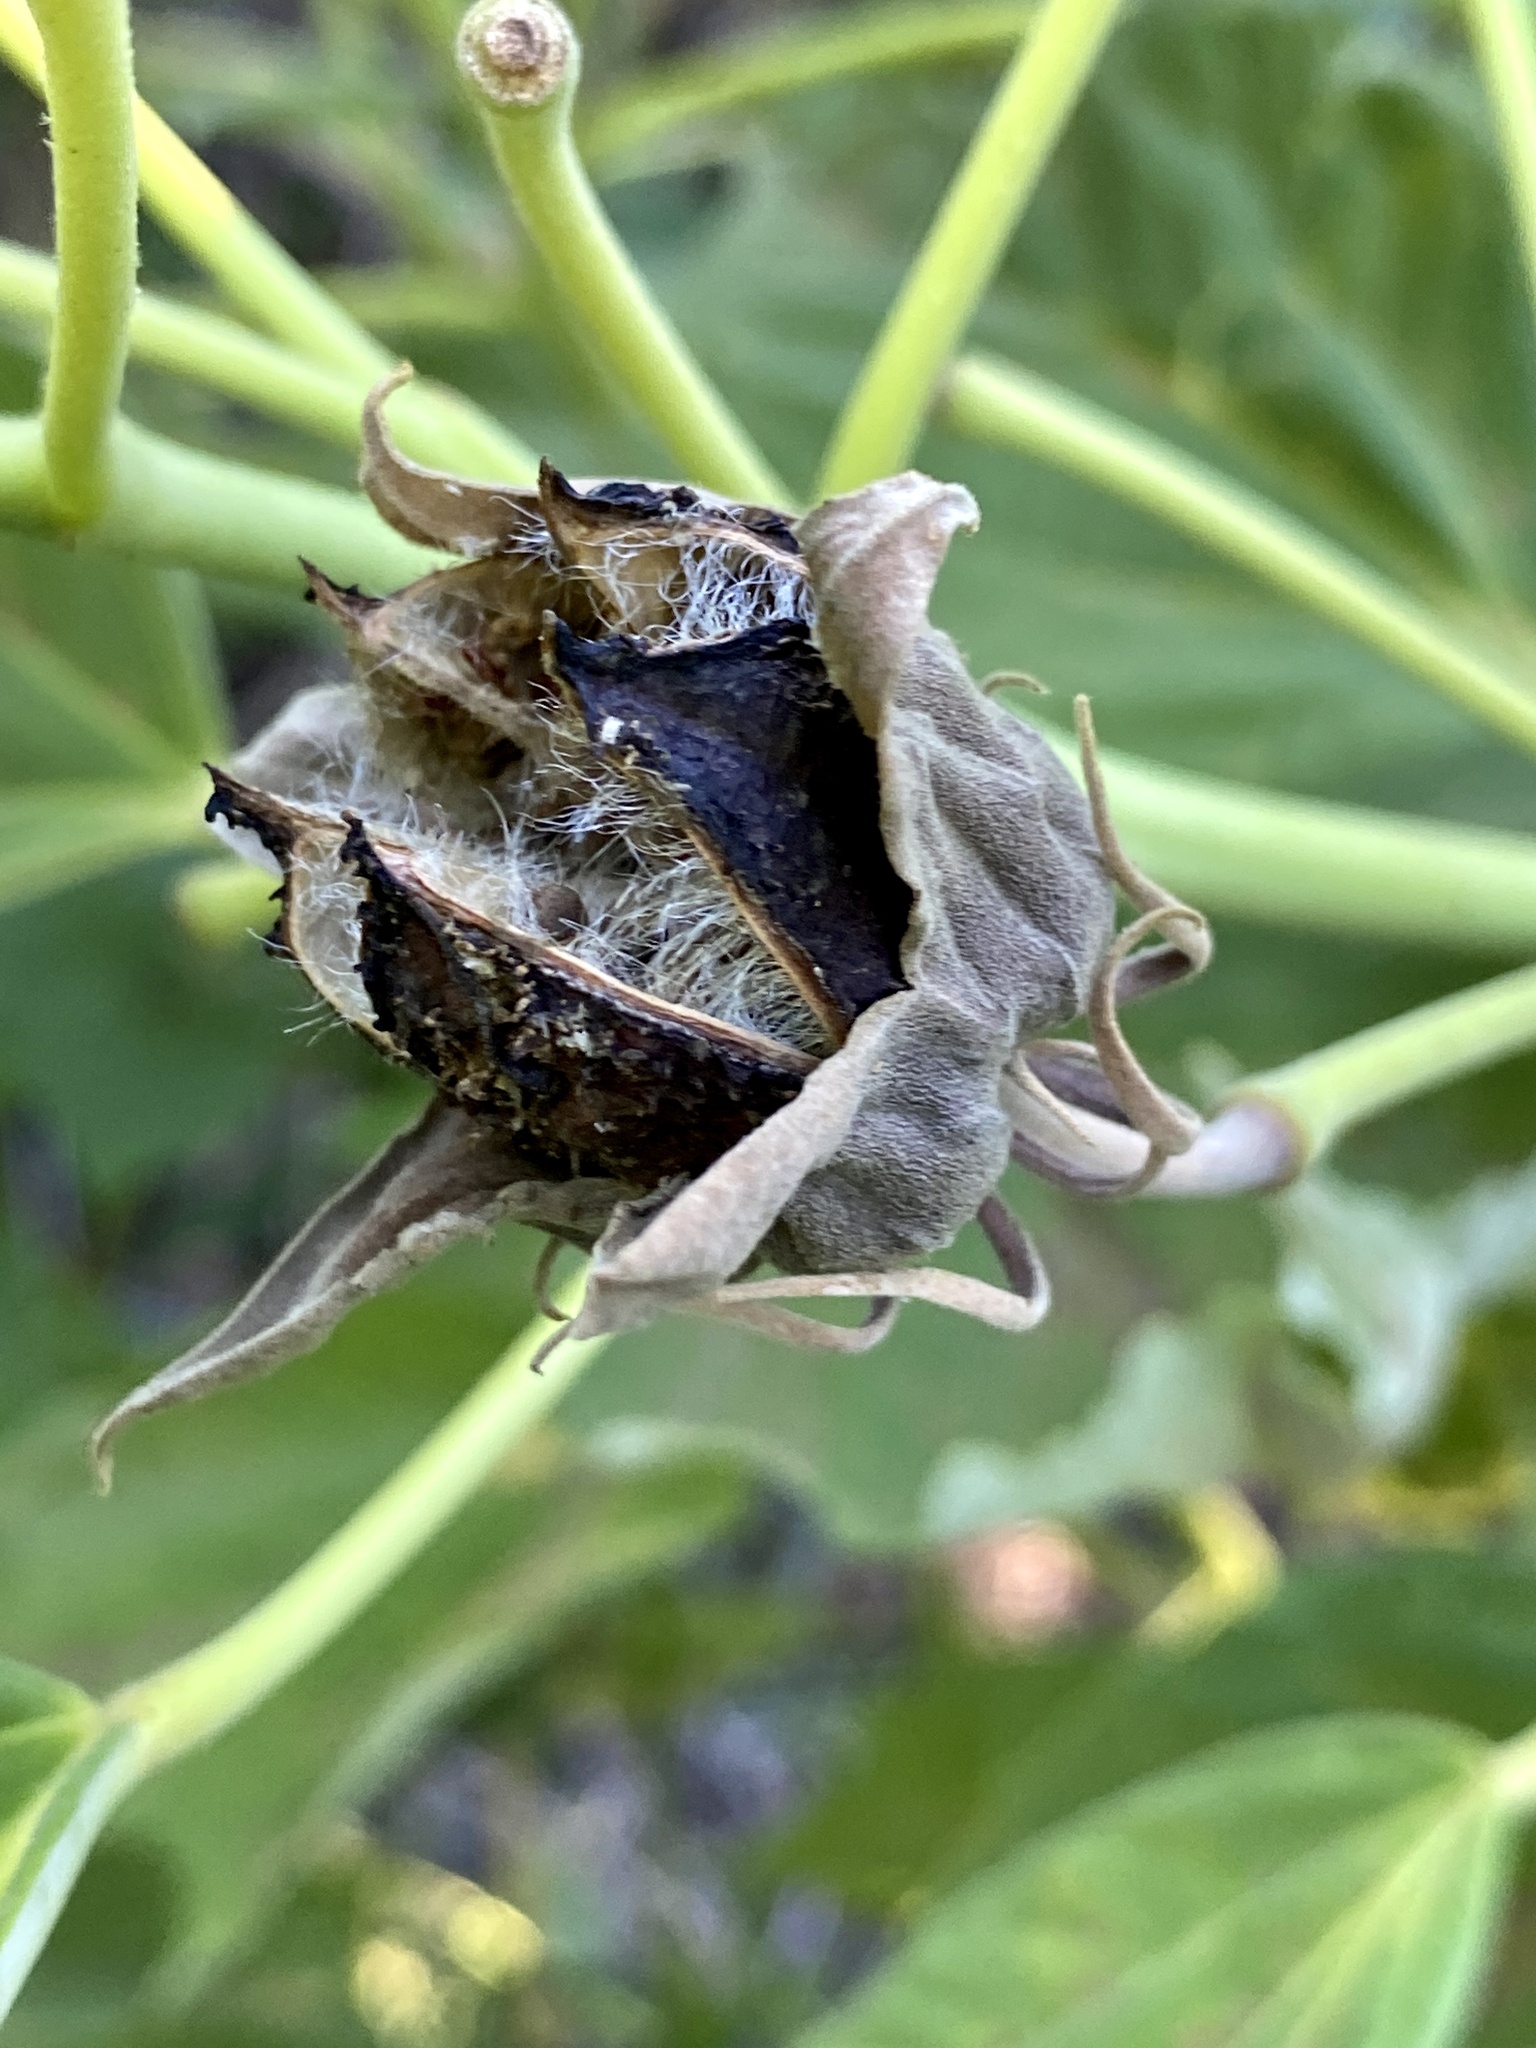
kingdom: Plantae
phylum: Tracheophyta
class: Magnoliopsida
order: Malvales
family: Malvaceae
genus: Hibiscus
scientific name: Hibiscus moscheutos
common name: Common rose-mallow
